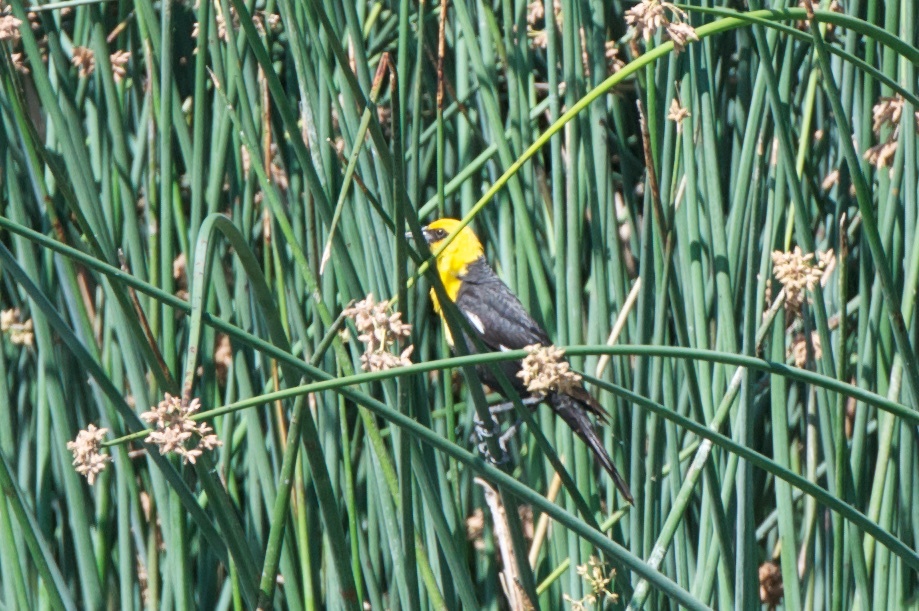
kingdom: Animalia
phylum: Chordata
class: Aves
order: Passeriformes
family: Icteridae
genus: Xanthocephalus
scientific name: Xanthocephalus xanthocephalus
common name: Yellow-headed blackbird
